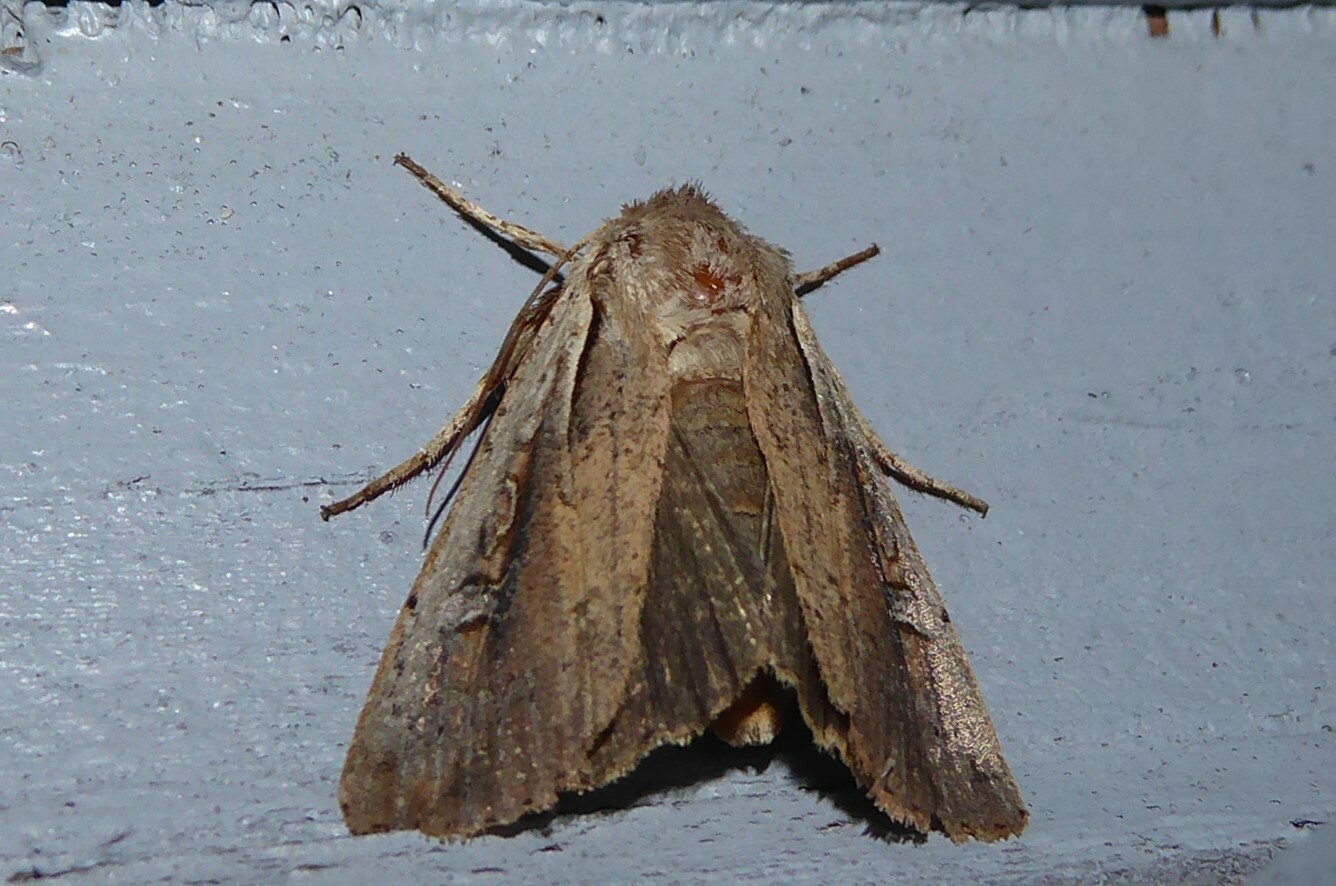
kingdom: Animalia
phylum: Arthropoda
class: Insecta
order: Lepidoptera
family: Noctuidae
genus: Ichneutica
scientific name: Ichneutica atristriga
